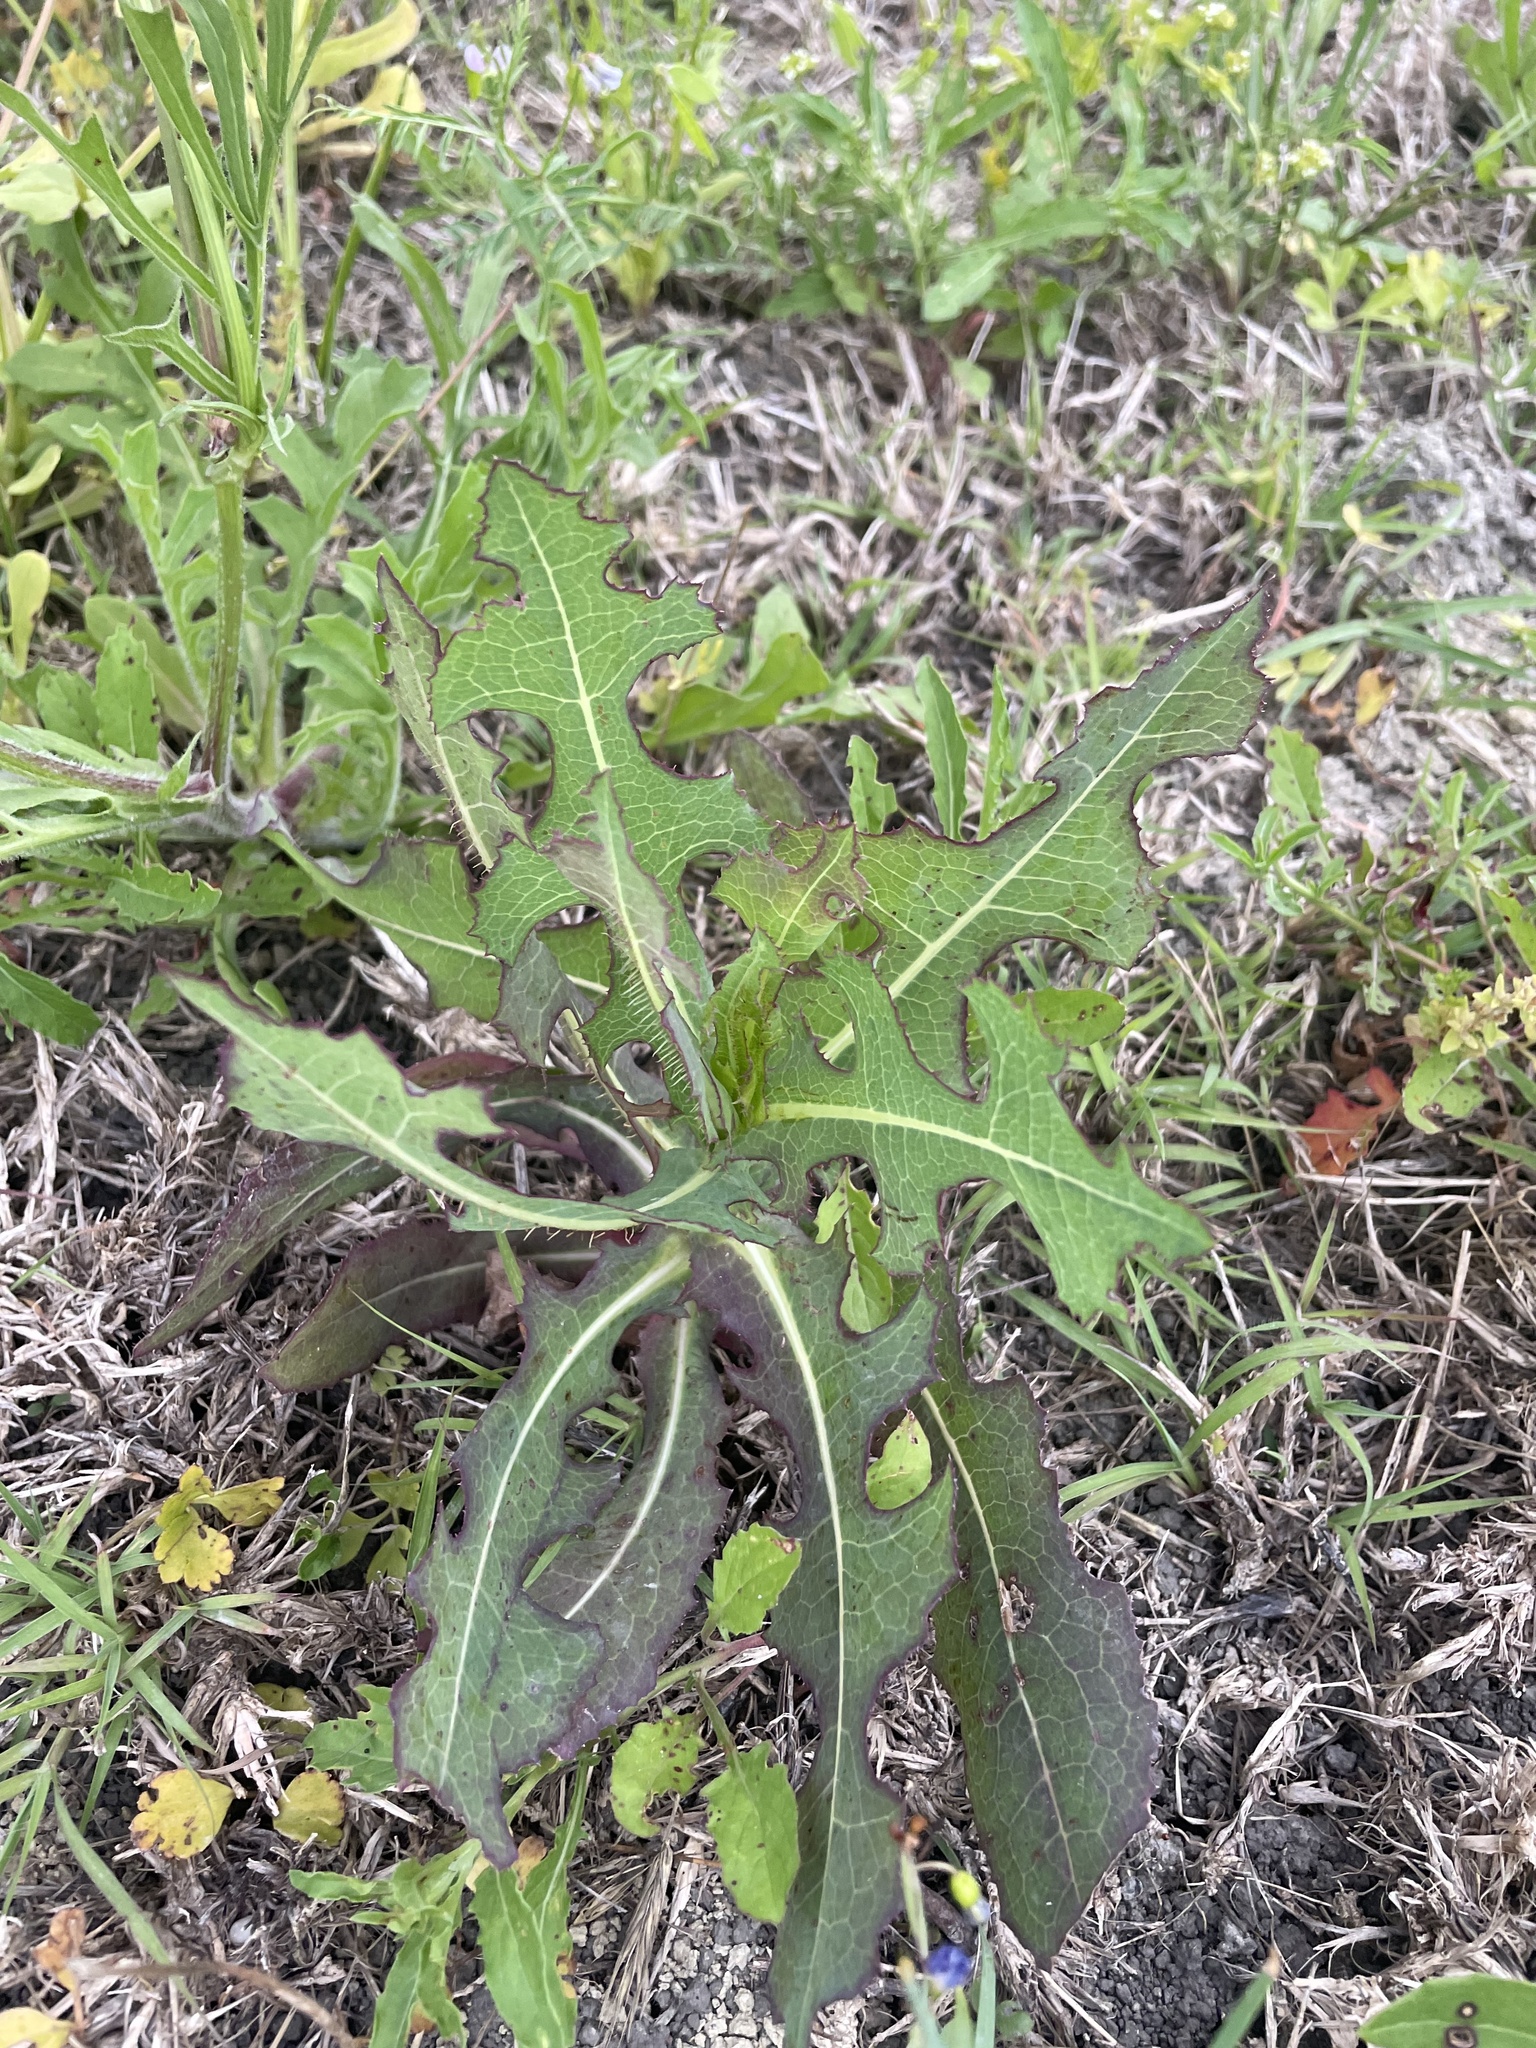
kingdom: Plantae
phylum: Tracheophyta
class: Magnoliopsida
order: Asterales
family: Asteraceae
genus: Lactuca
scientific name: Lactuca serriola
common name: Prickly lettuce
